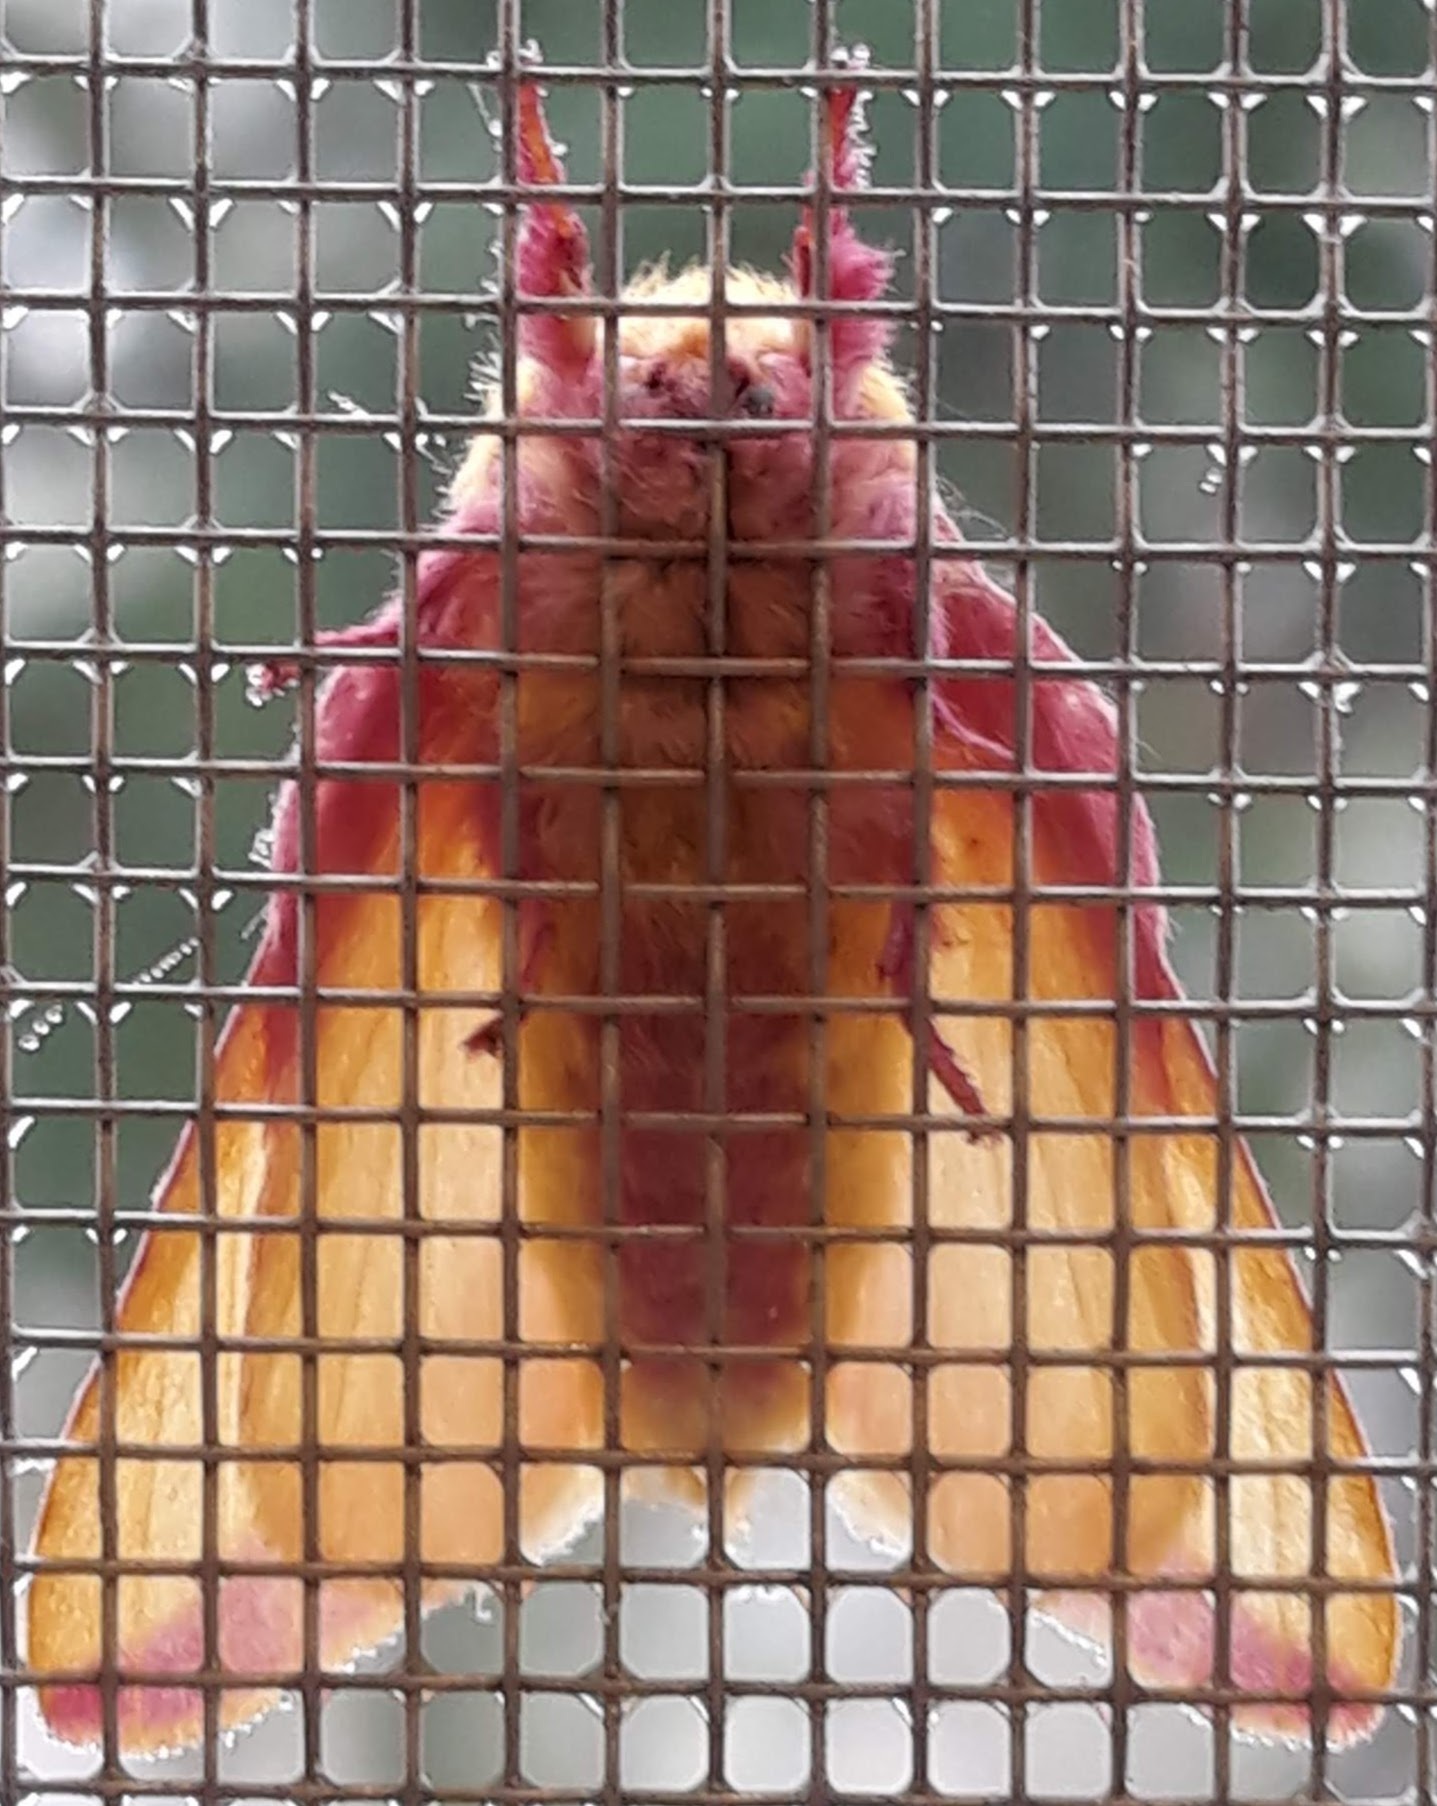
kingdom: Animalia
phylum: Arthropoda
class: Insecta
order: Lepidoptera
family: Saturniidae
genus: Dryocampa
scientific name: Dryocampa rubicunda
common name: Rosy maple moth
